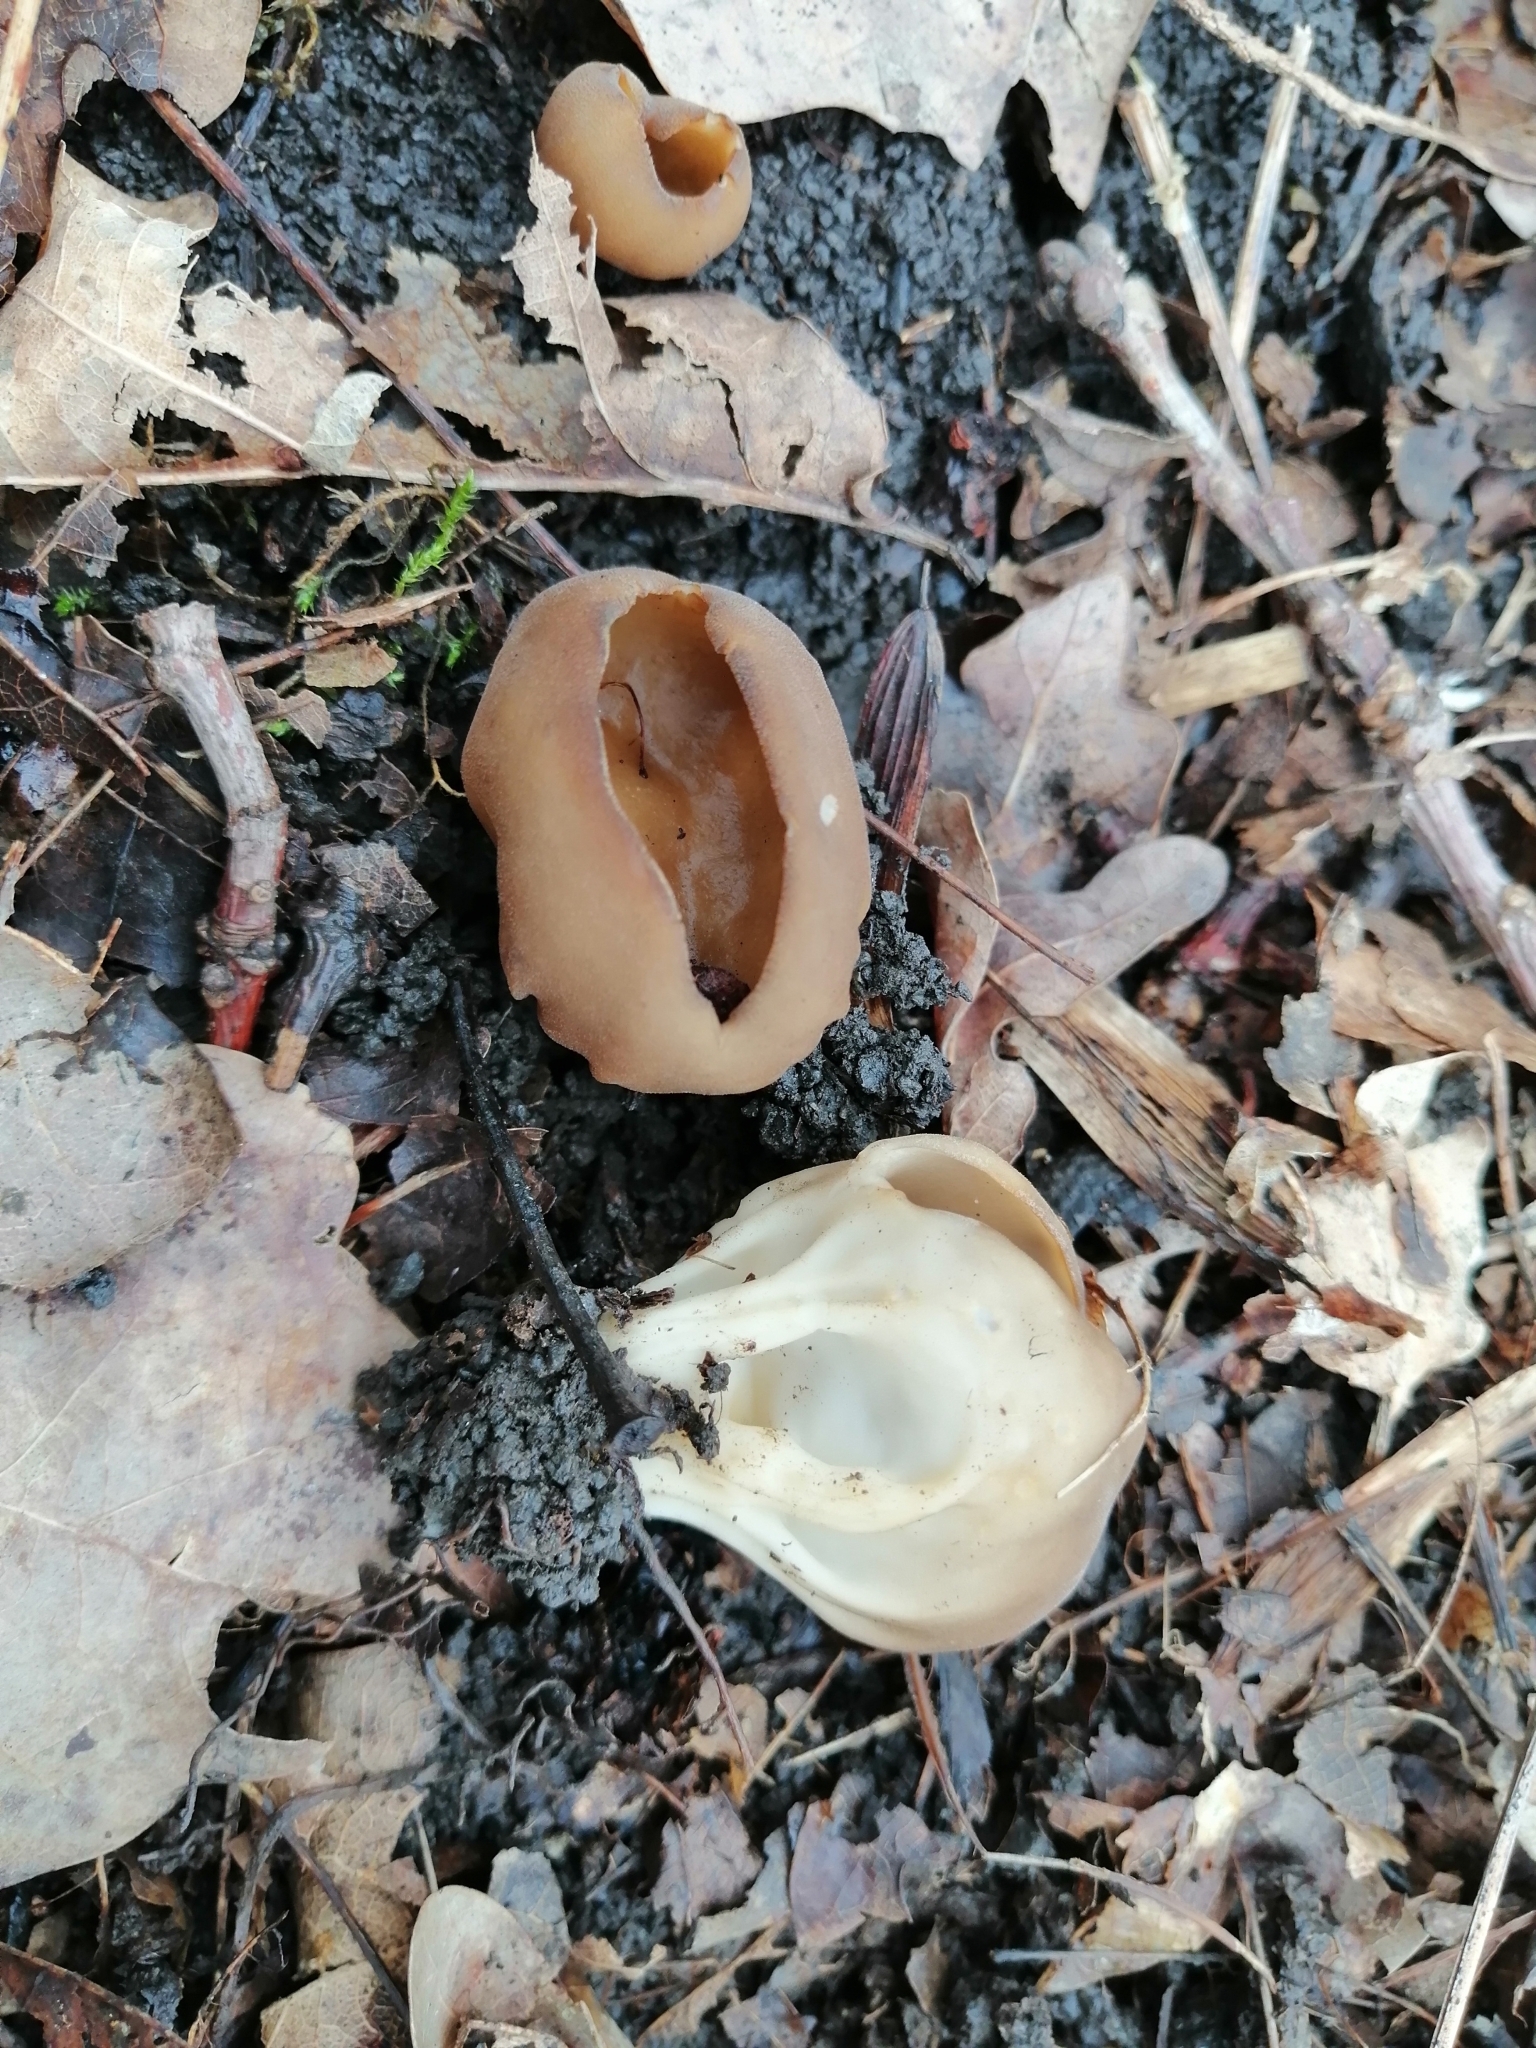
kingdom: Fungi
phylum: Ascomycota
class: Pezizomycetes
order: Pezizales
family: Helvellaceae
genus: Helvella
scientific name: Helvella acetabulum
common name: Vinegar cup
